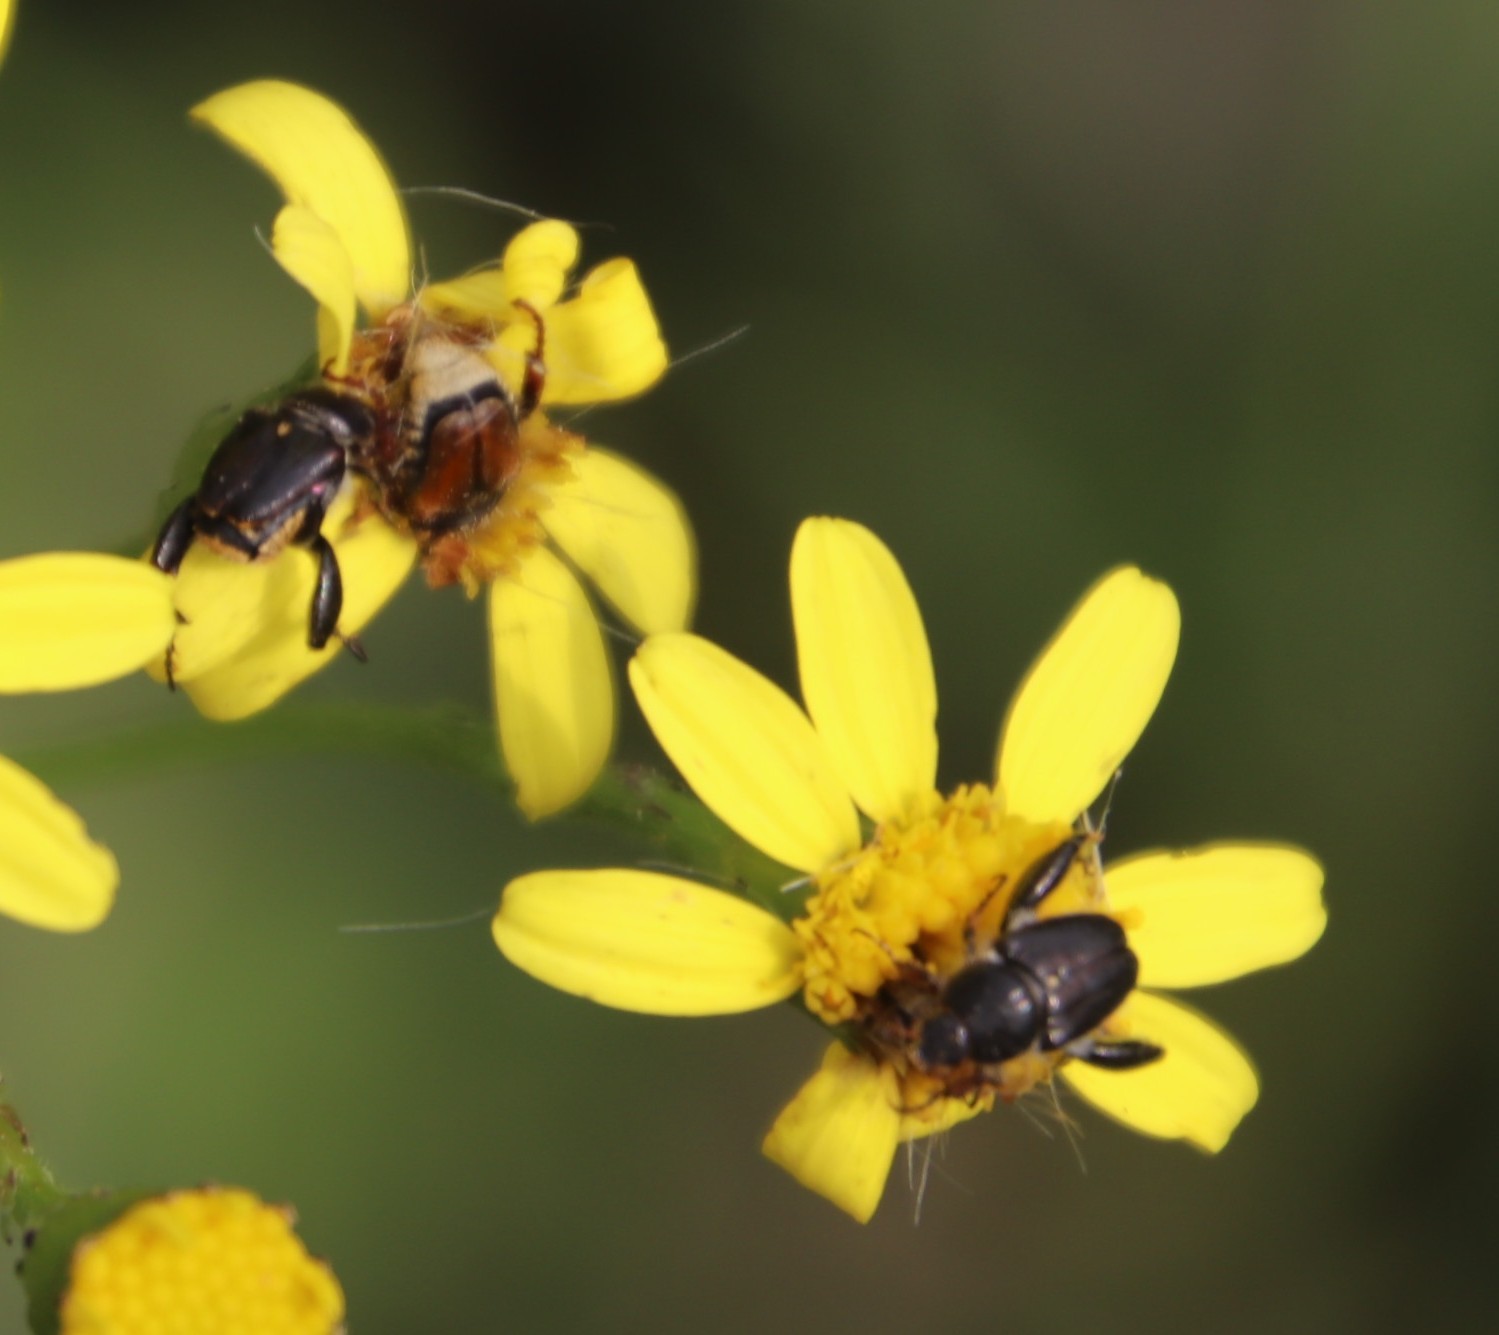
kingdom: Plantae
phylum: Tracheophyta
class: Magnoliopsida
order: Asterales
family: Asteraceae
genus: Senecio
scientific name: Senecio burchellii
